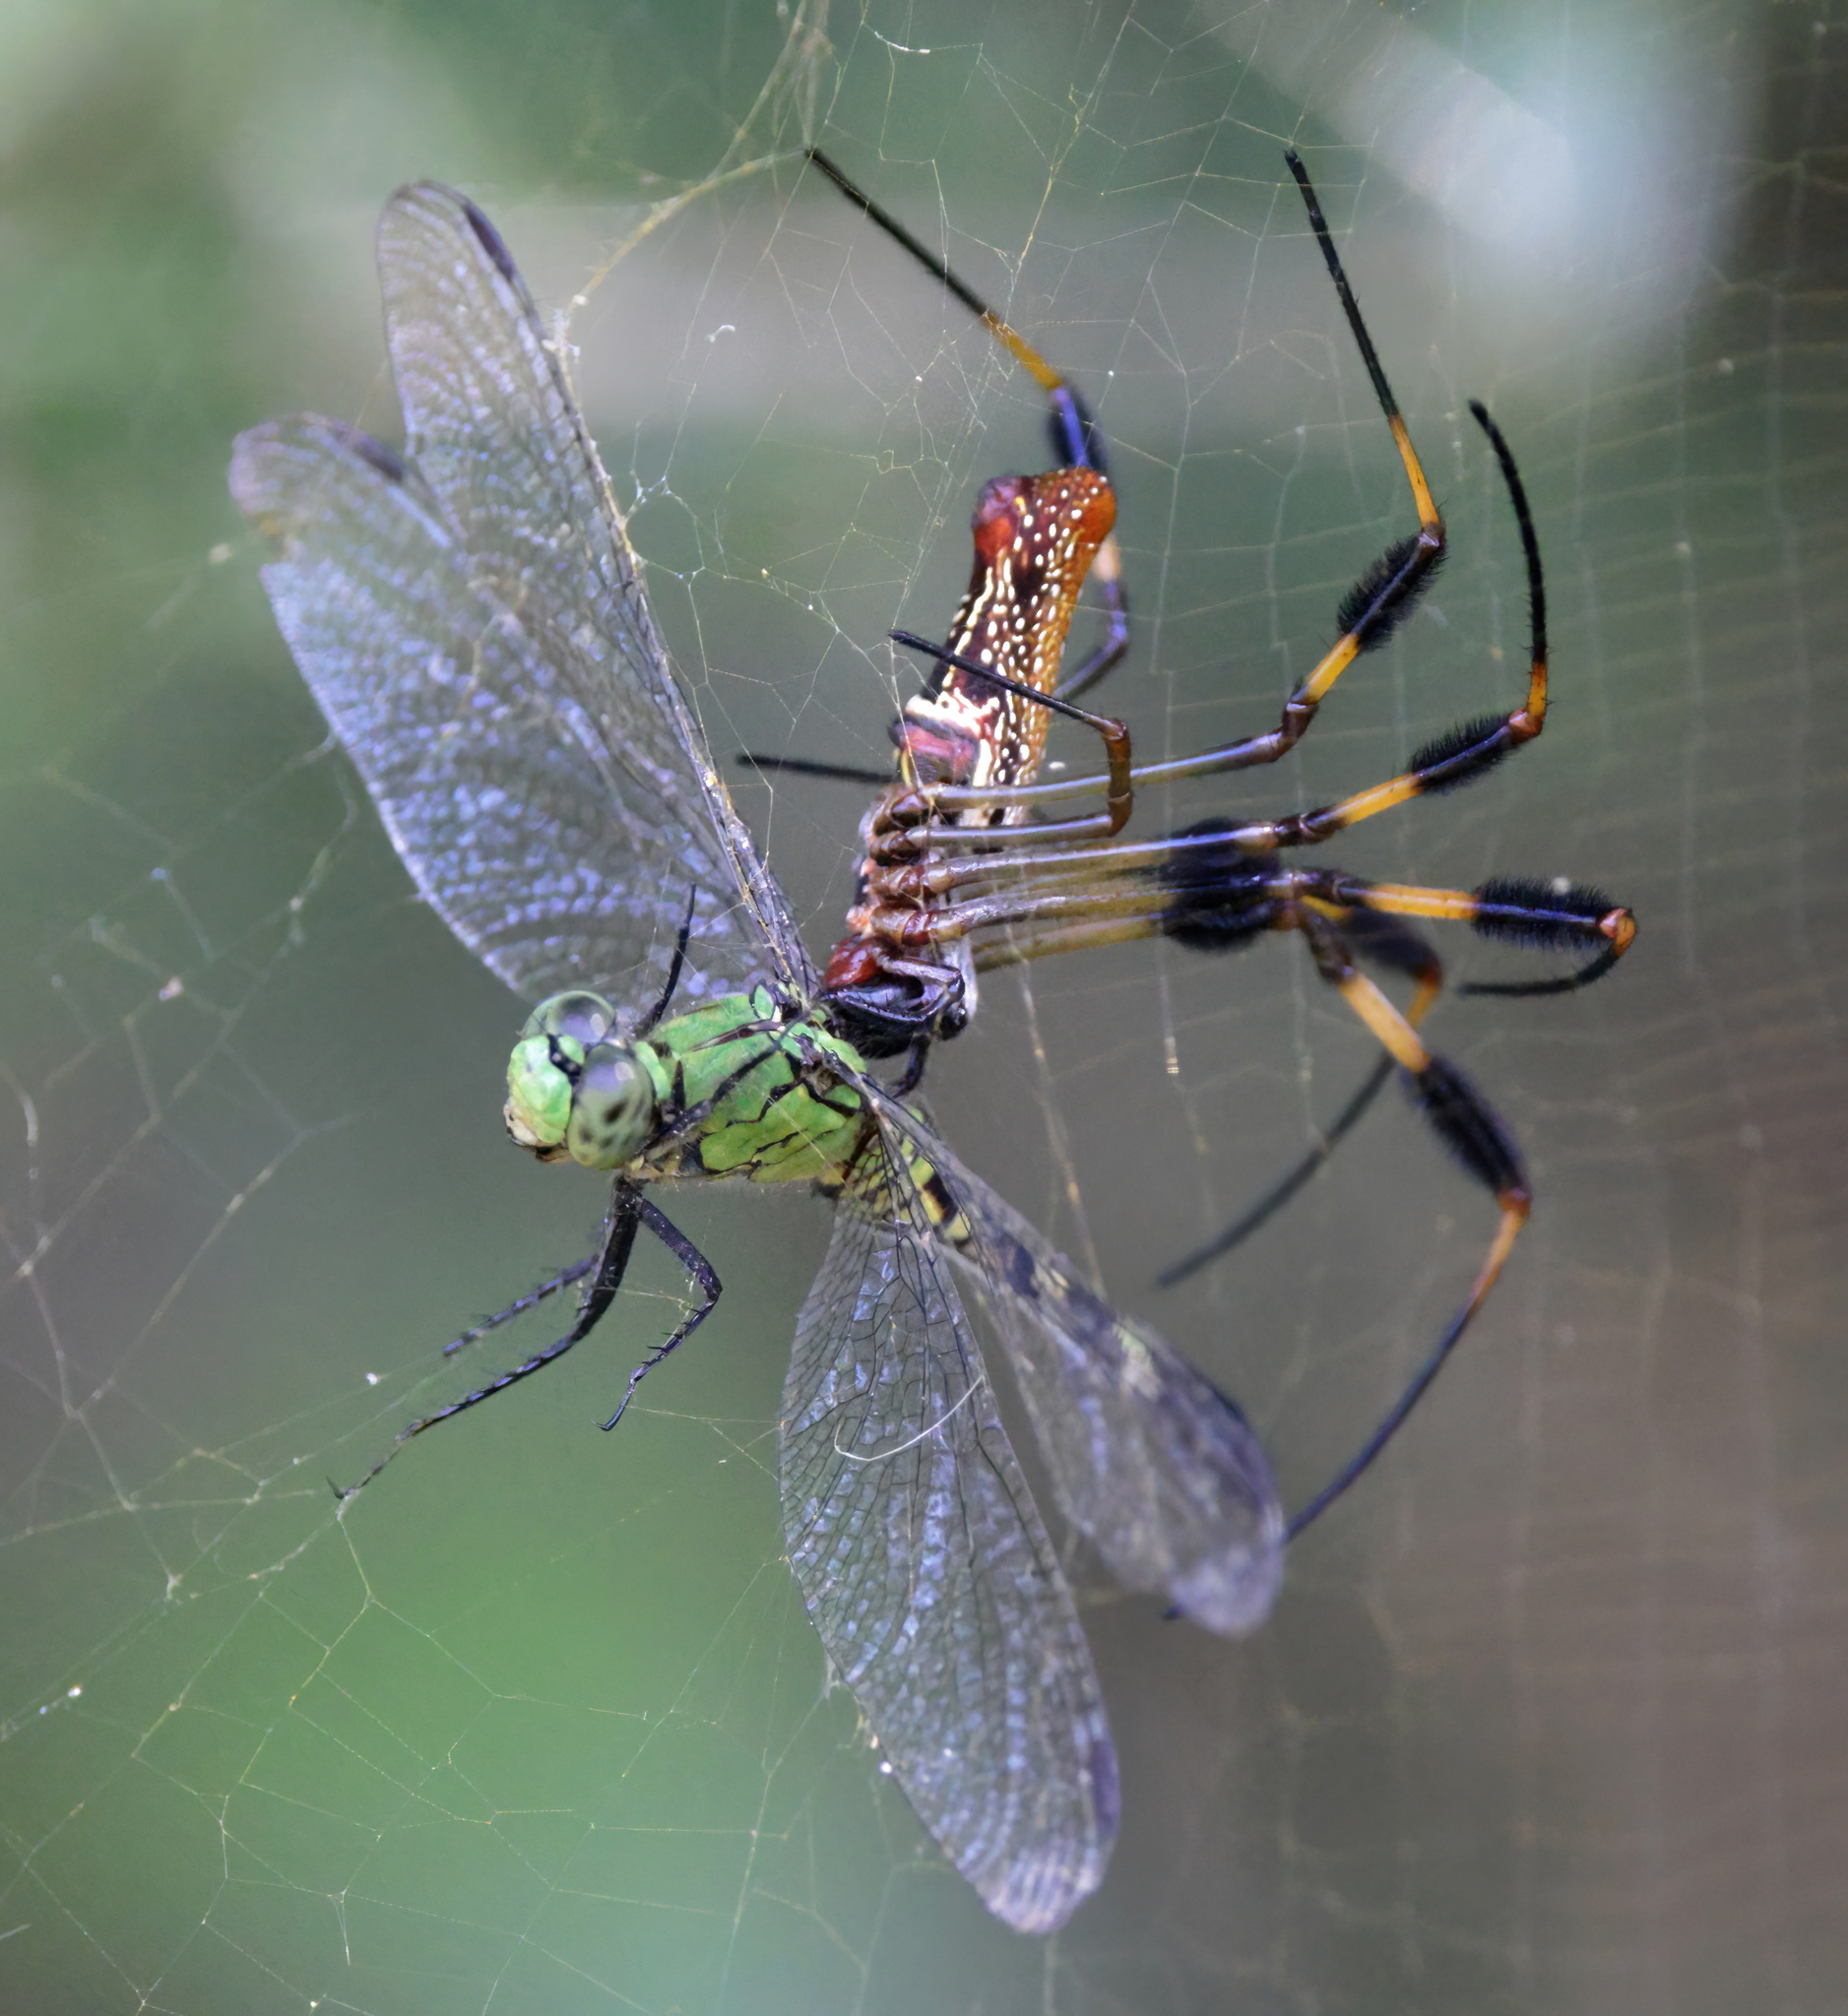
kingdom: Animalia
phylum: Arthropoda
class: Arachnida
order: Araneae
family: Araneidae
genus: Trichonephila
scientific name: Trichonephila clavipes
